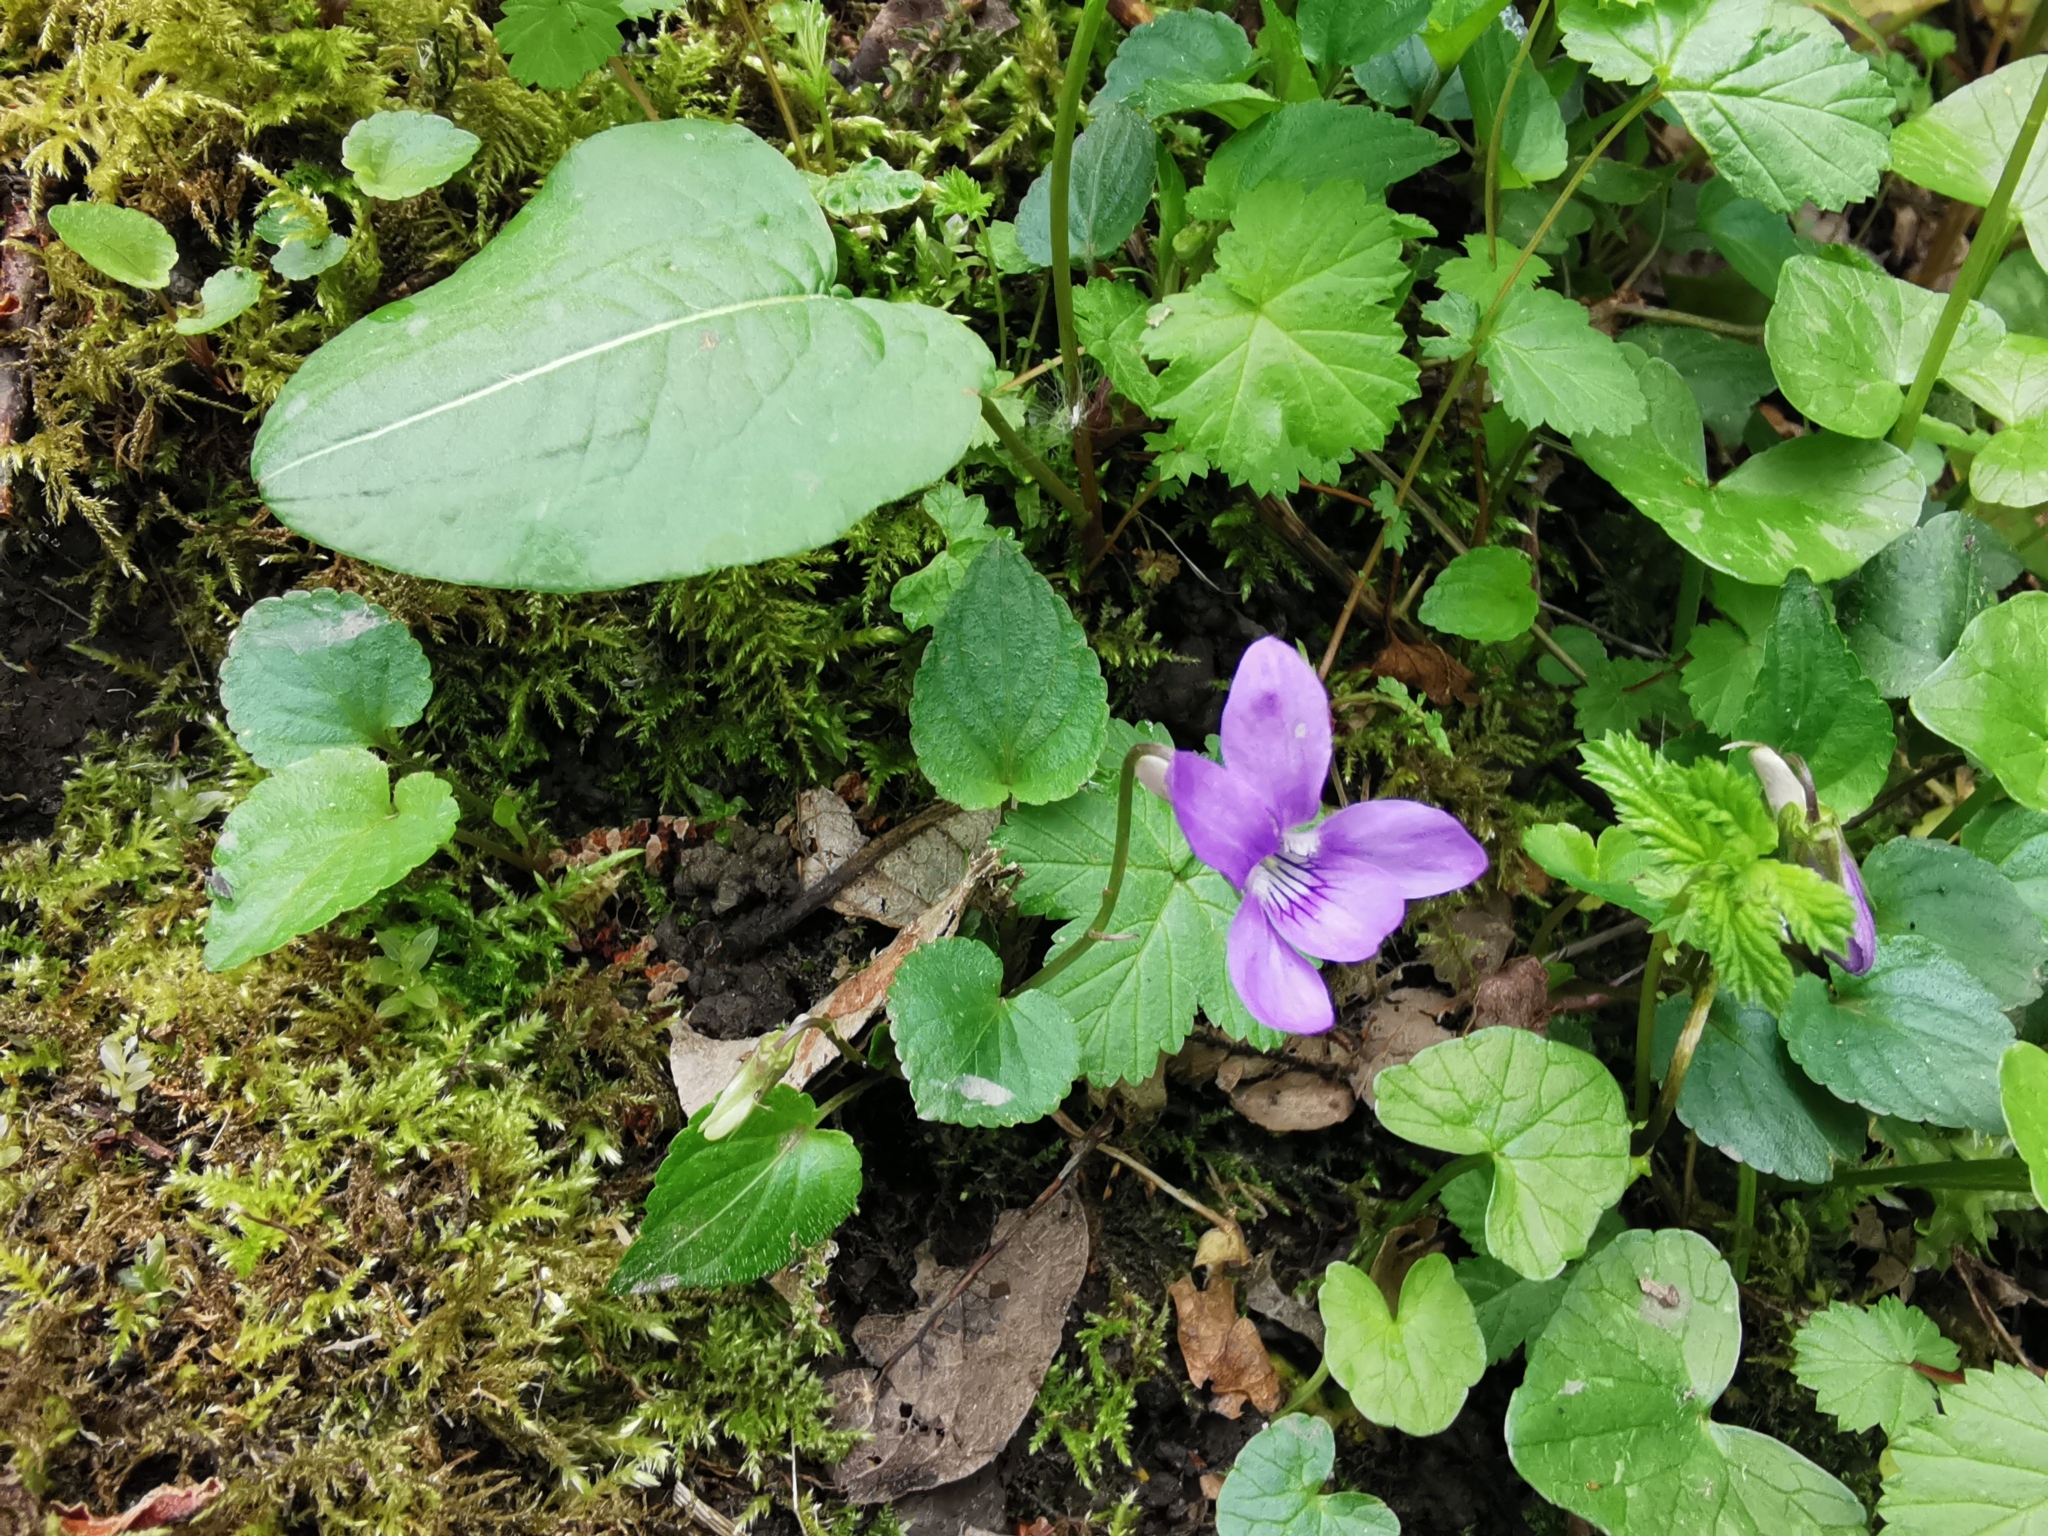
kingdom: Plantae
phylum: Tracheophyta
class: Magnoliopsida
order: Malpighiales
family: Violaceae
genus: Viola
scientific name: Viola riviniana
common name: Common dog-violet
